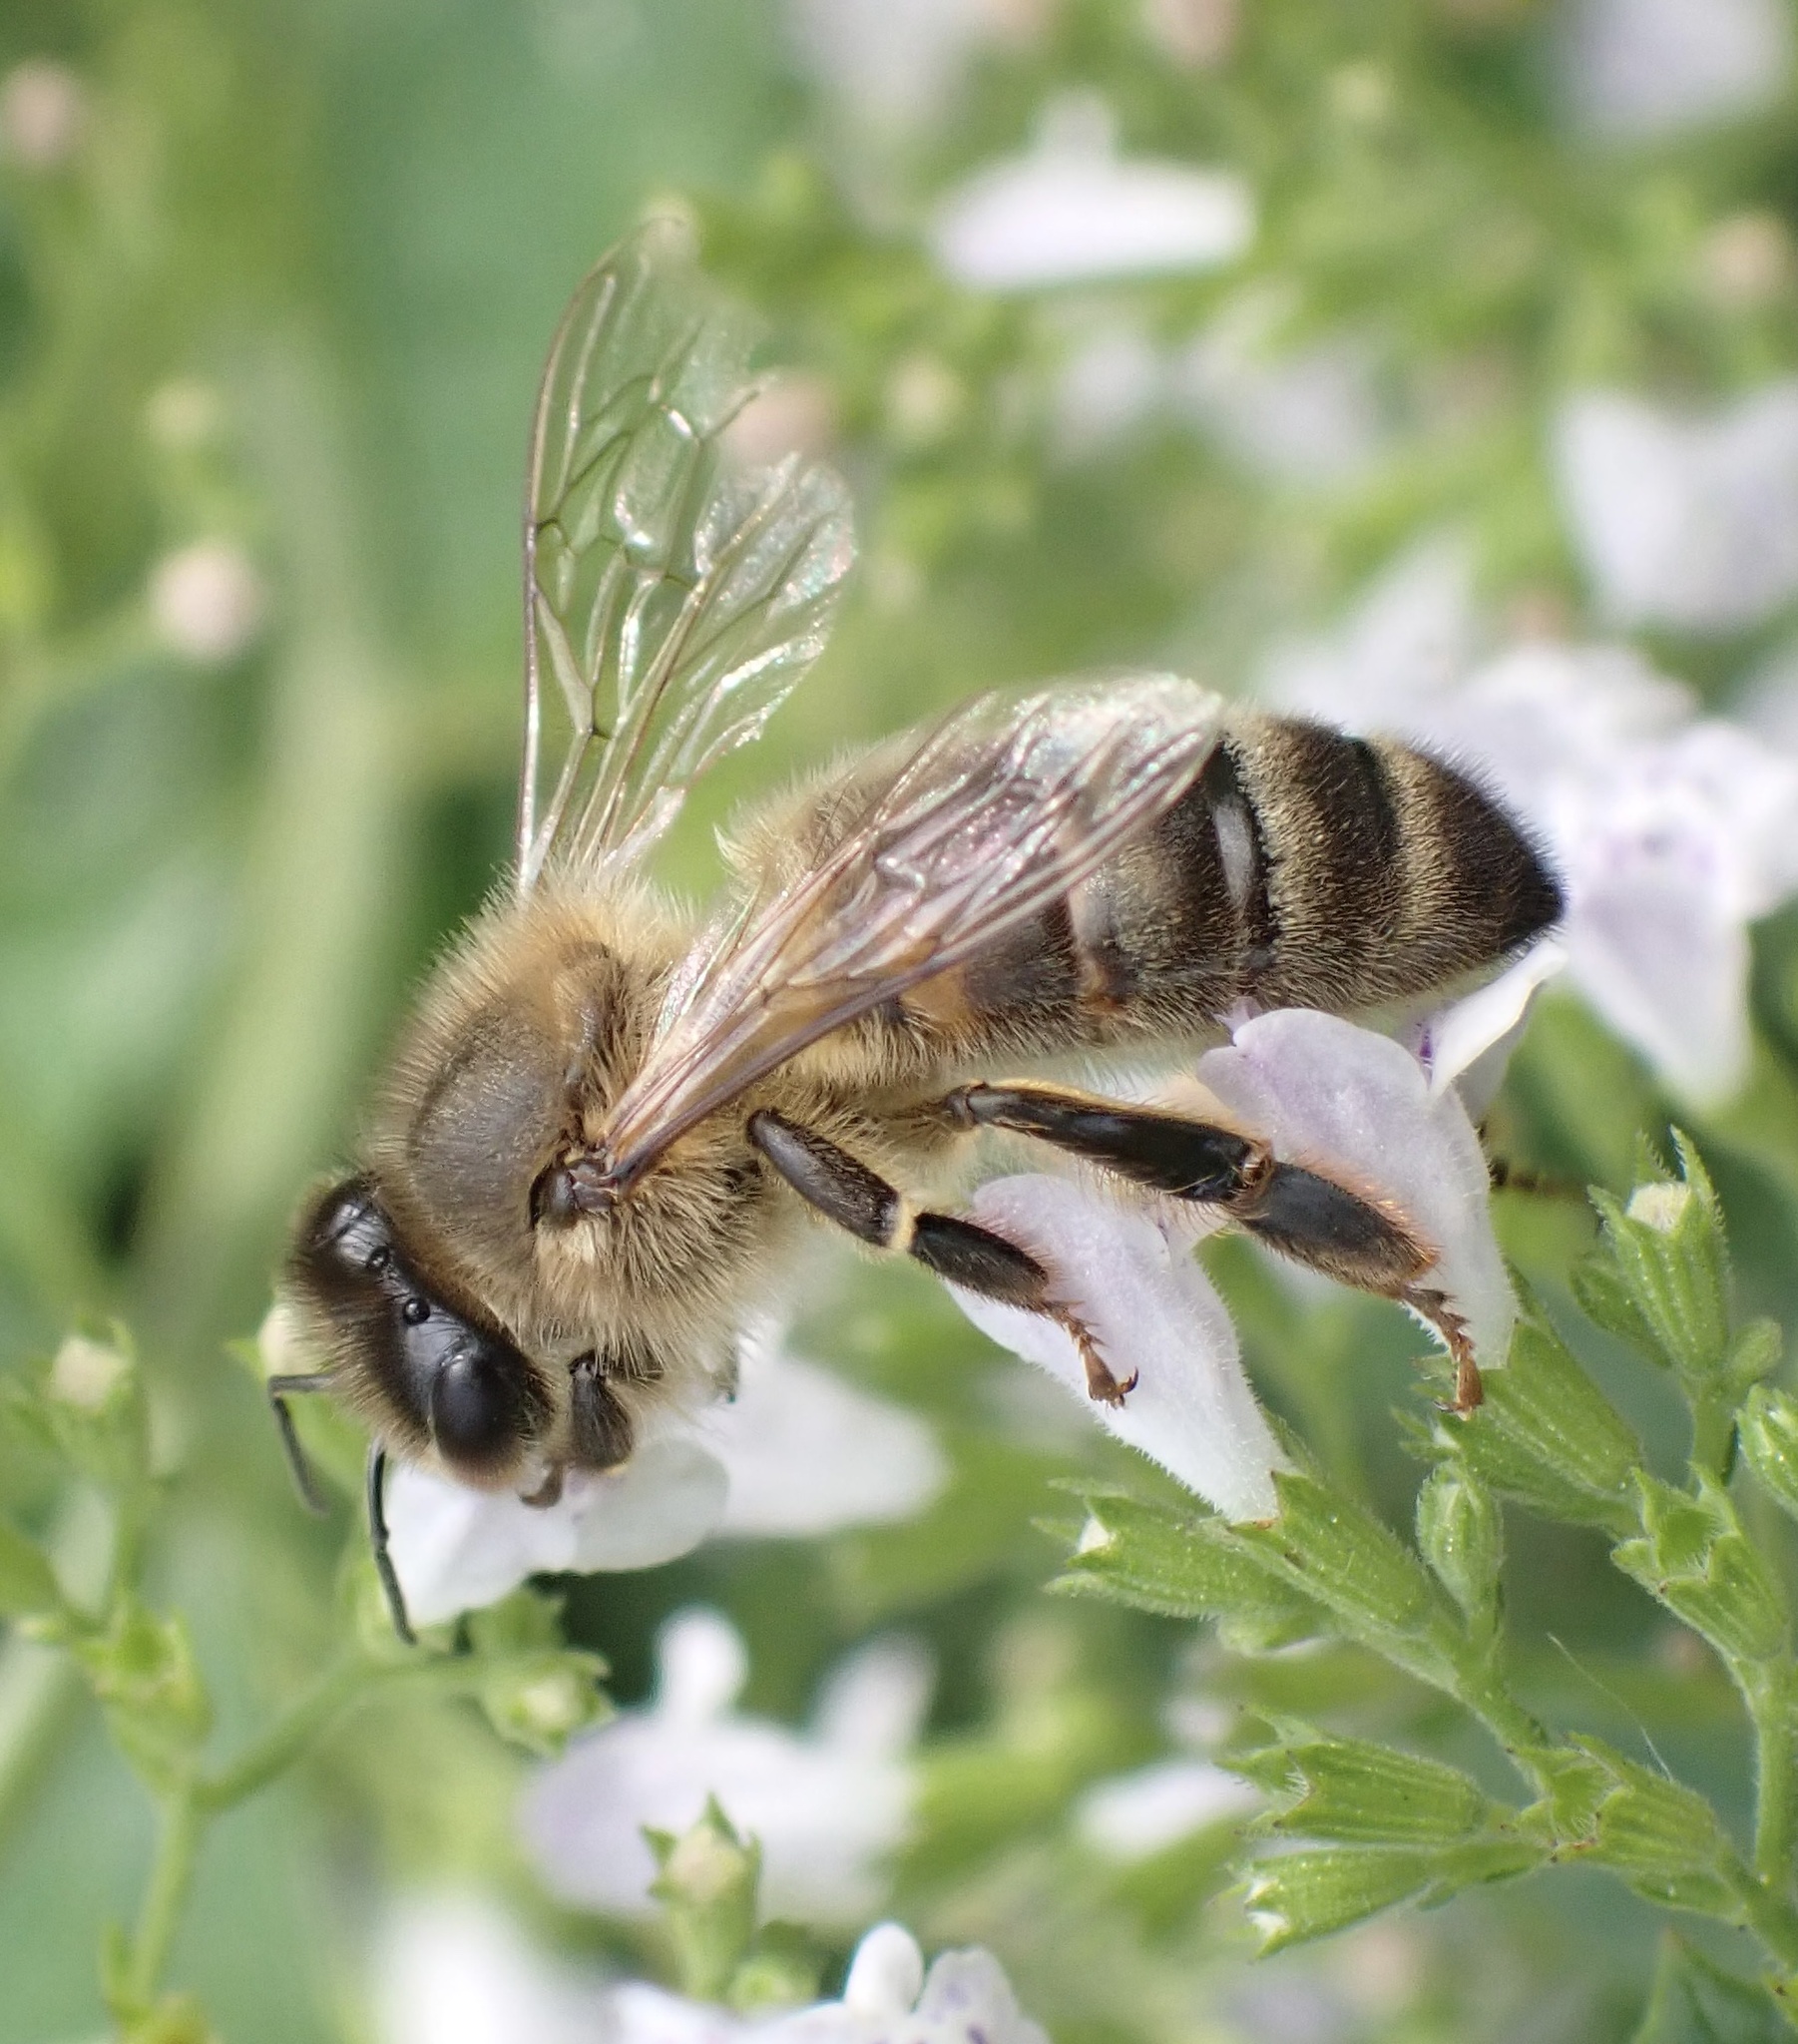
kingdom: Animalia
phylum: Arthropoda
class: Insecta
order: Hymenoptera
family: Apidae
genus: Apis
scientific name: Apis mellifera
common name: Honey bee
